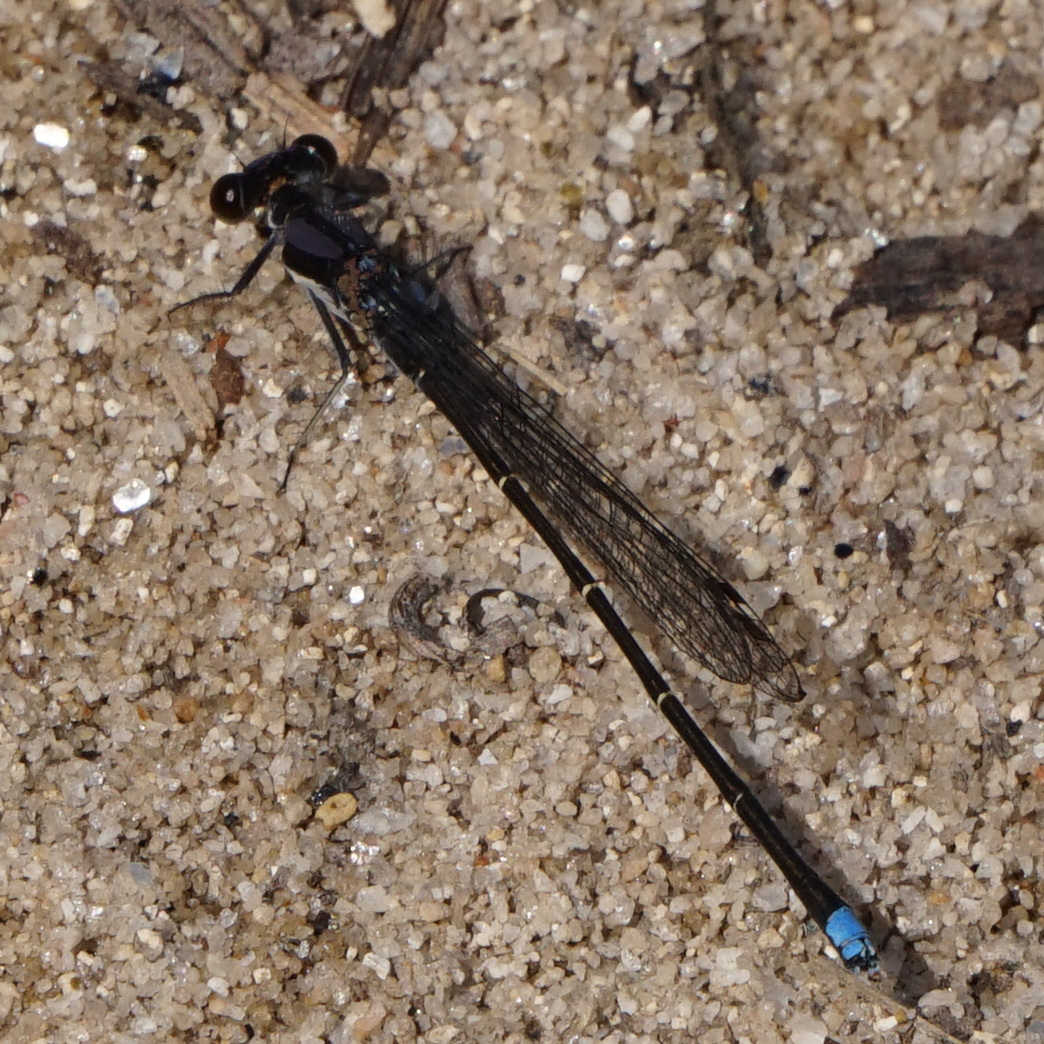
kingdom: Animalia
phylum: Arthropoda
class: Insecta
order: Odonata
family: Coenagrionidae
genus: Argia
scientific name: Argia tibialis
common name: Blue-tipped dancer
